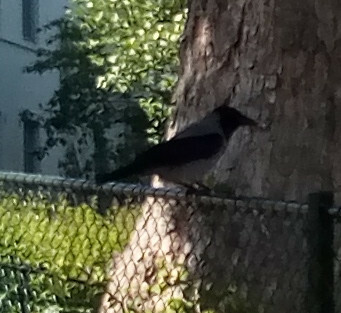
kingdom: Animalia
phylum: Chordata
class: Aves
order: Passeriformes
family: Corvidae
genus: Corvus
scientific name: Corvus cornix
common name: Hooded crow
